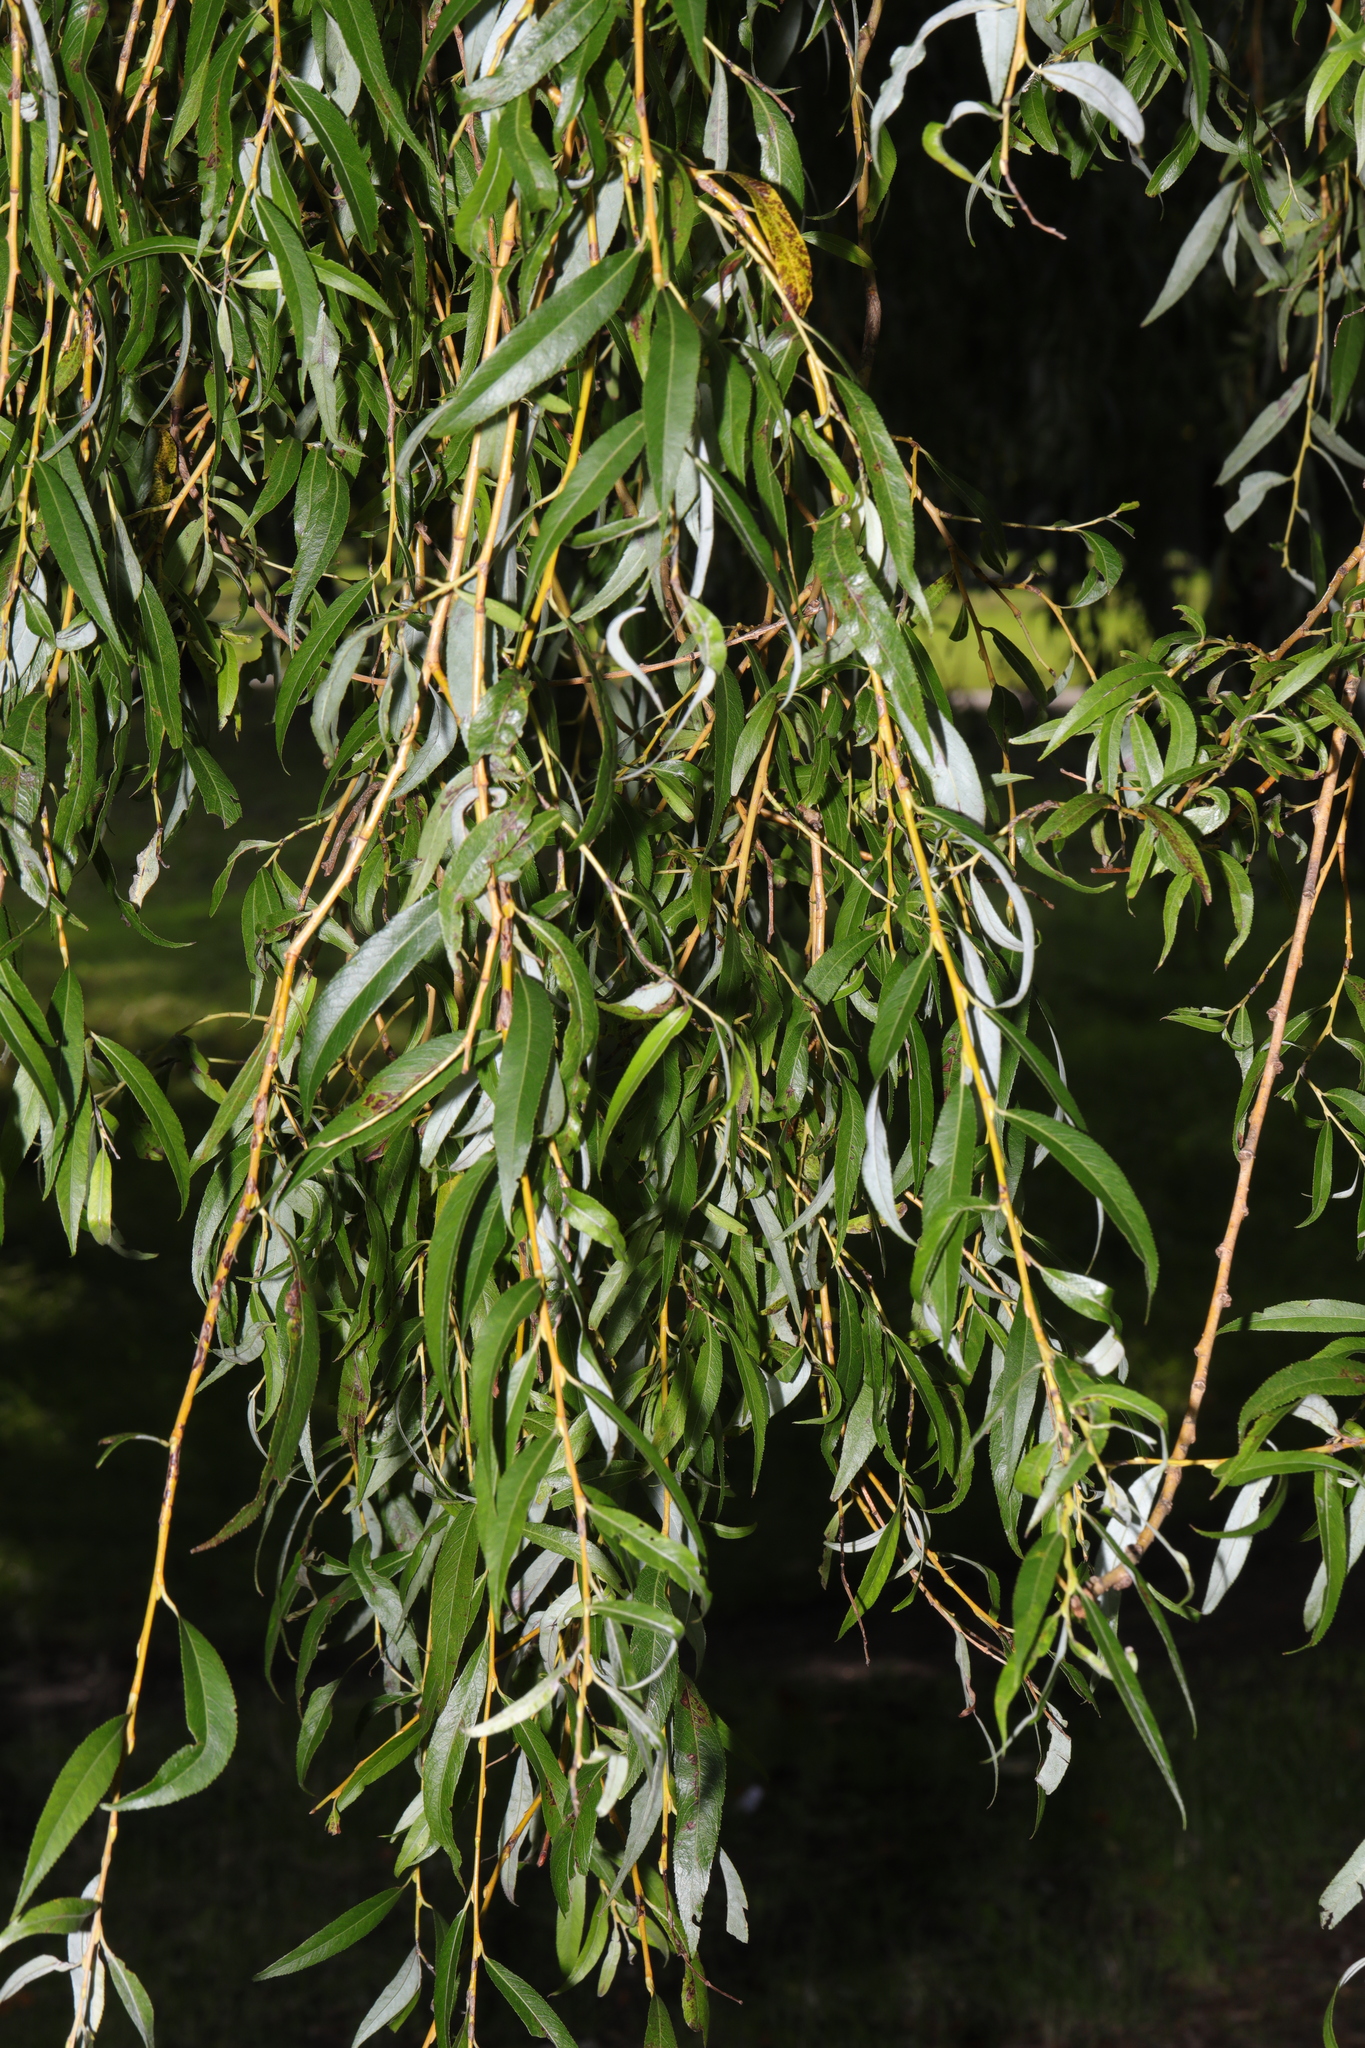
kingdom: Plantae
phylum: Tracheophyta
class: Magnoliopsida
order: Malpighiales
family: Salicaceae
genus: Salix
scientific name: Salix pendulina
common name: Wisconsin weeping willow
